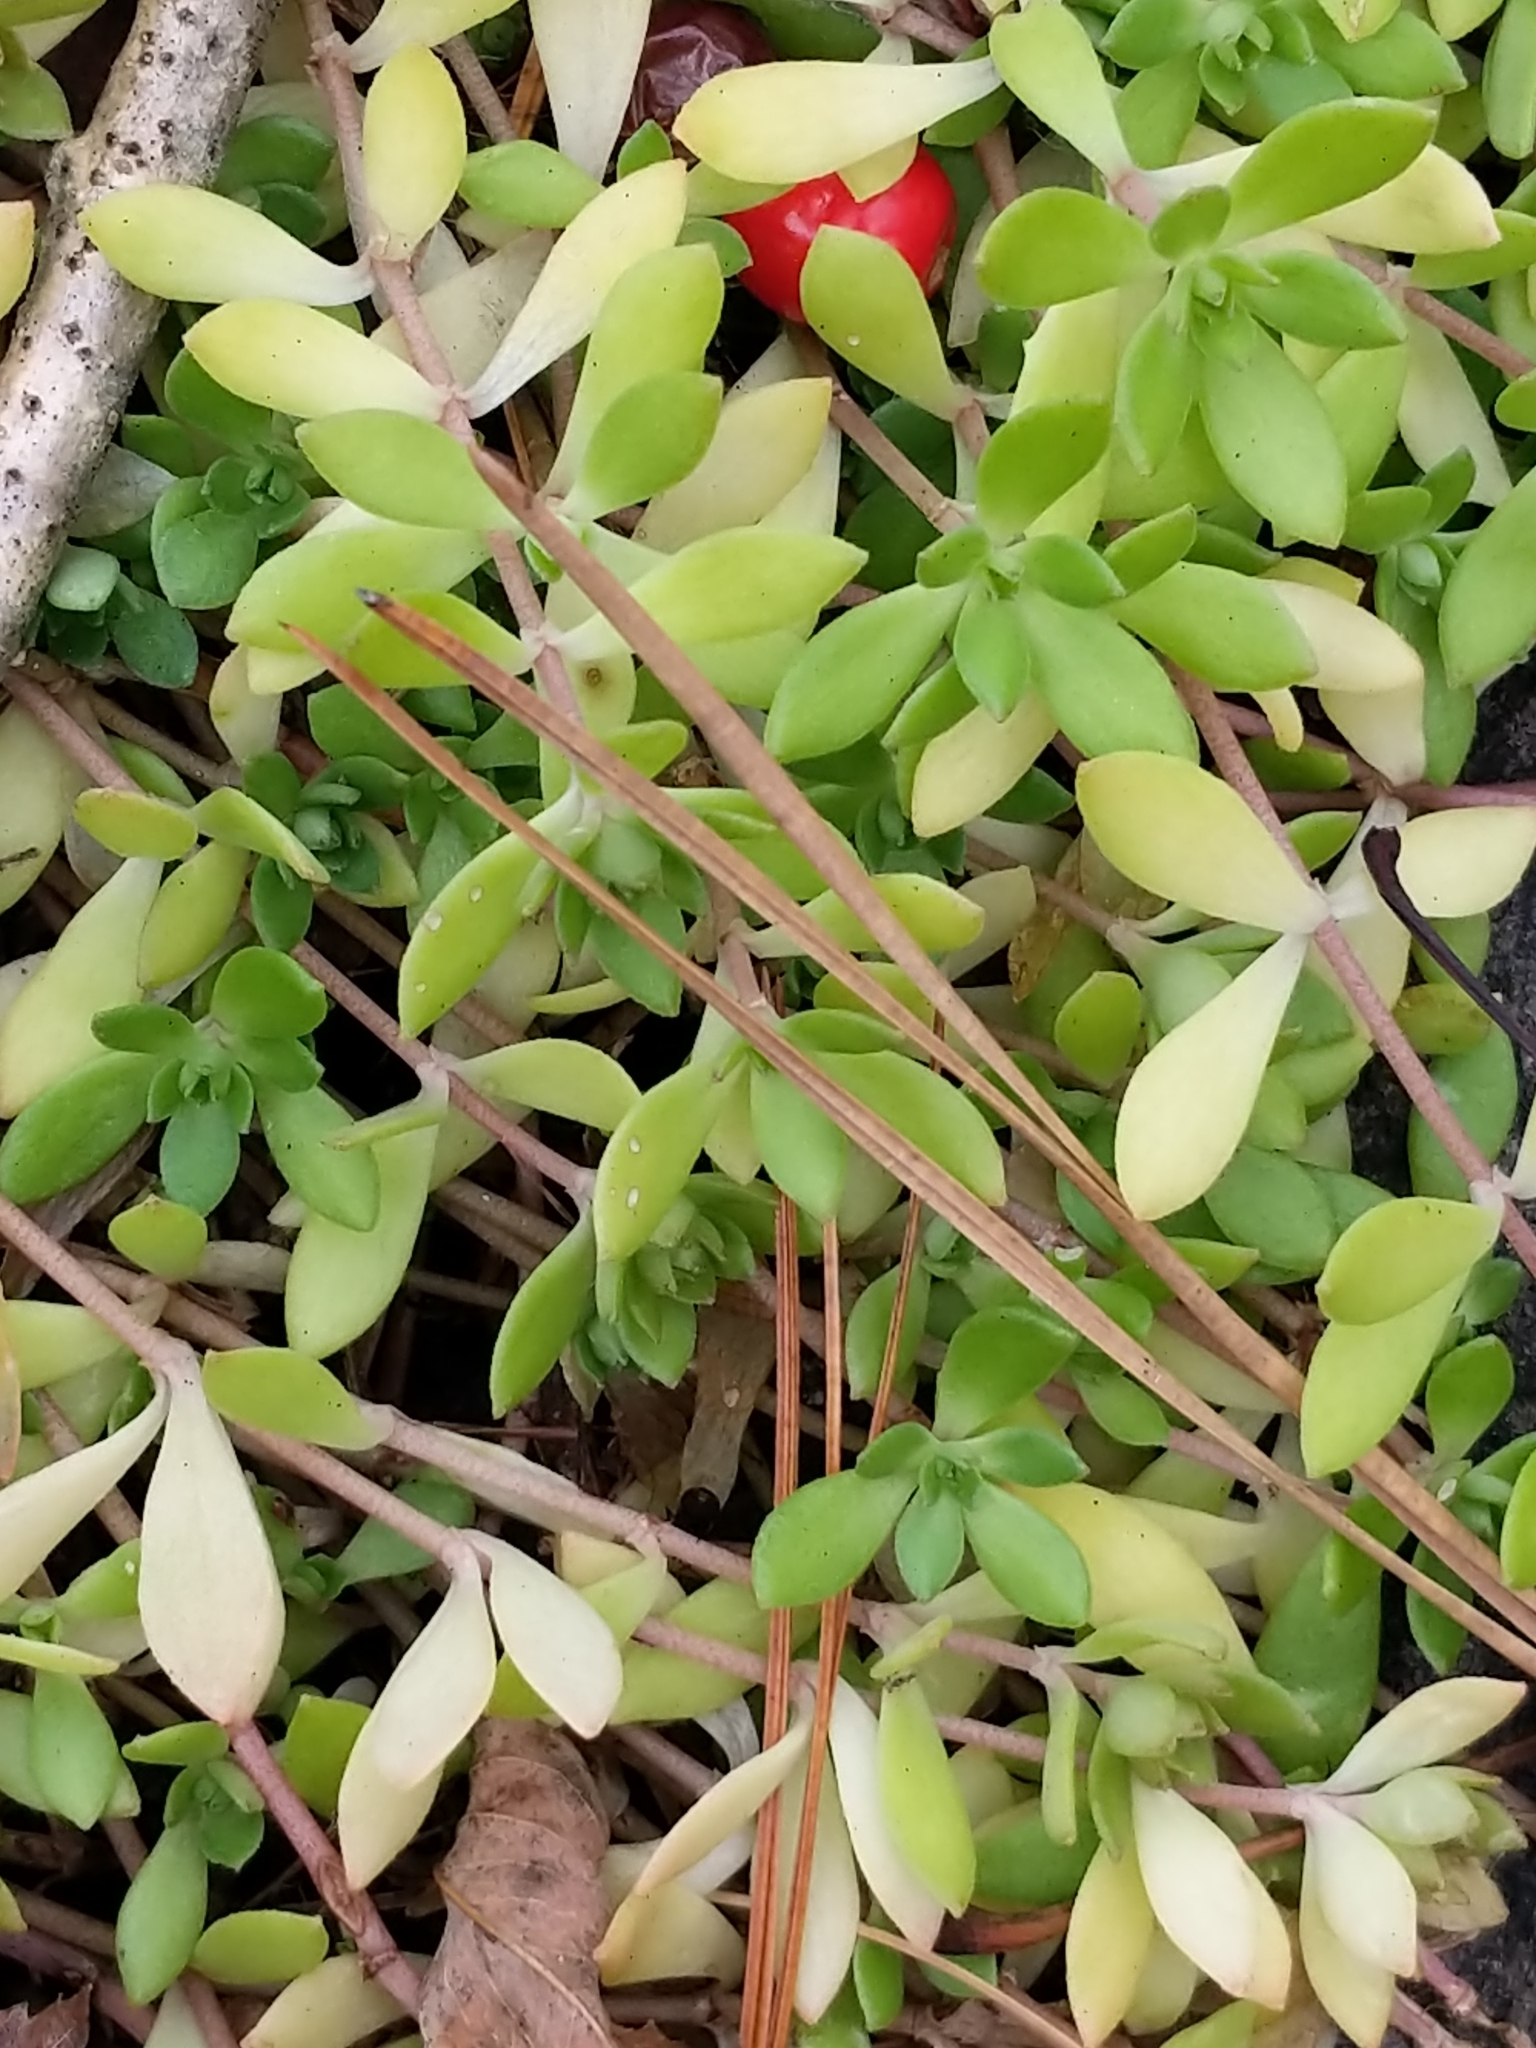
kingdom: Plantae
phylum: Tracheophyta
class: Magnoliopsida
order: Saxifragales
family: Crassulaceae
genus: Sedum
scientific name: Sedum sarmentosum
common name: Stringy stonecrop
